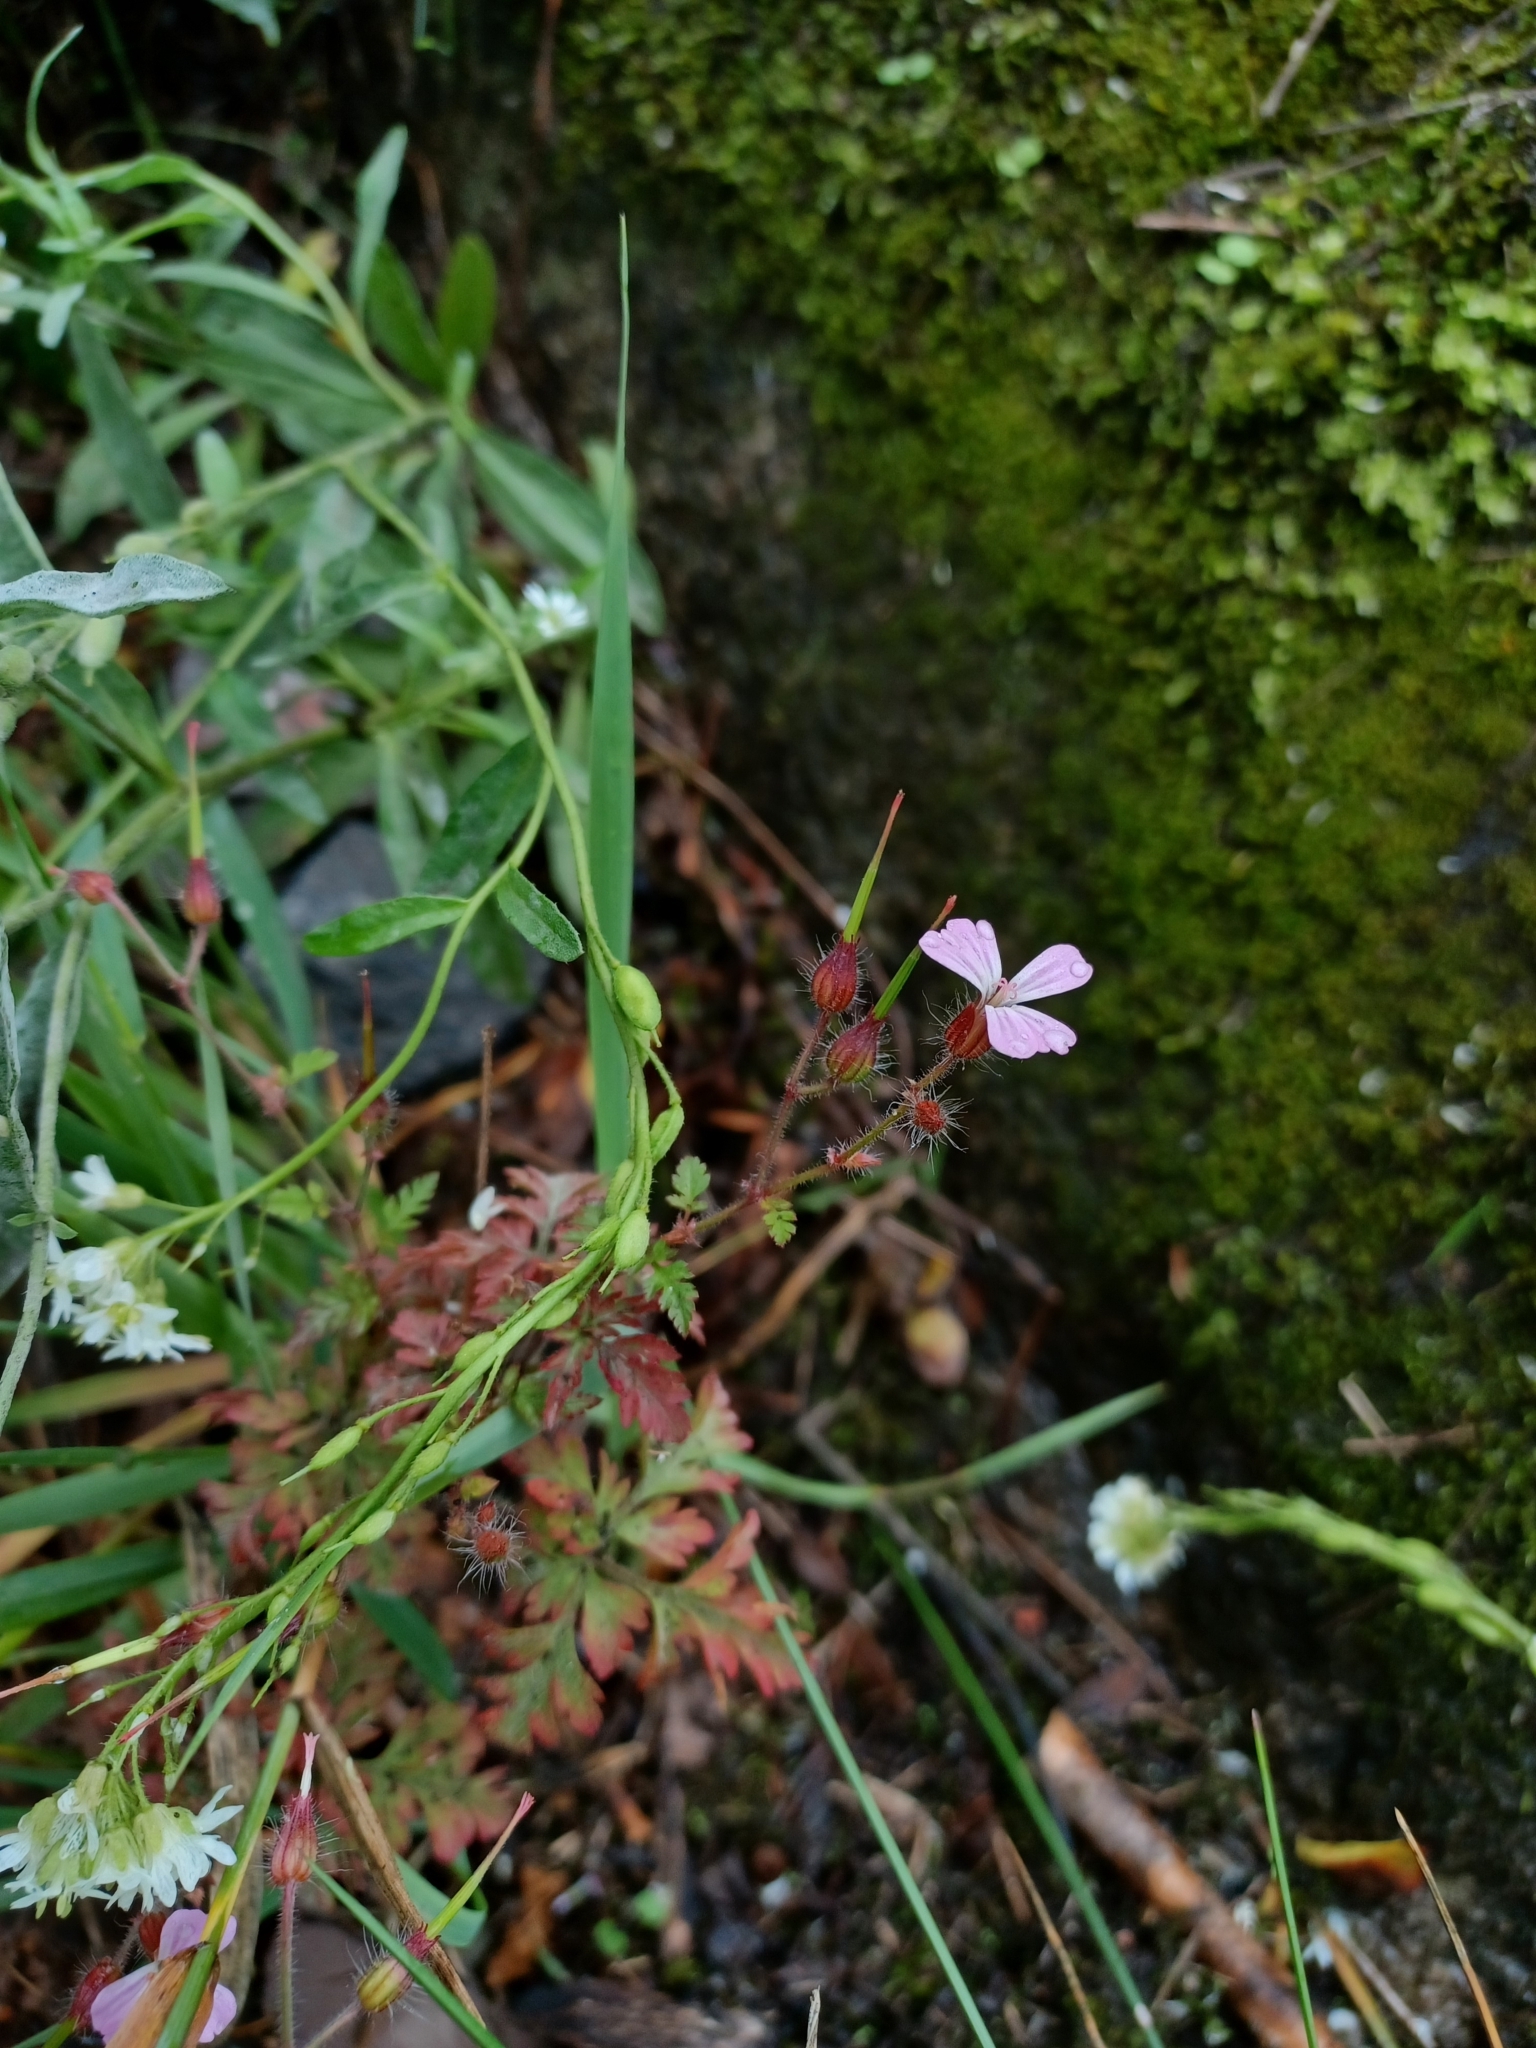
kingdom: Plantae
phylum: Tracheophyta
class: Magnoliopsida
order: Geraniales
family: Geraniaceae
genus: Geranium
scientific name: Geranium robertianum
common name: Herb-robert
